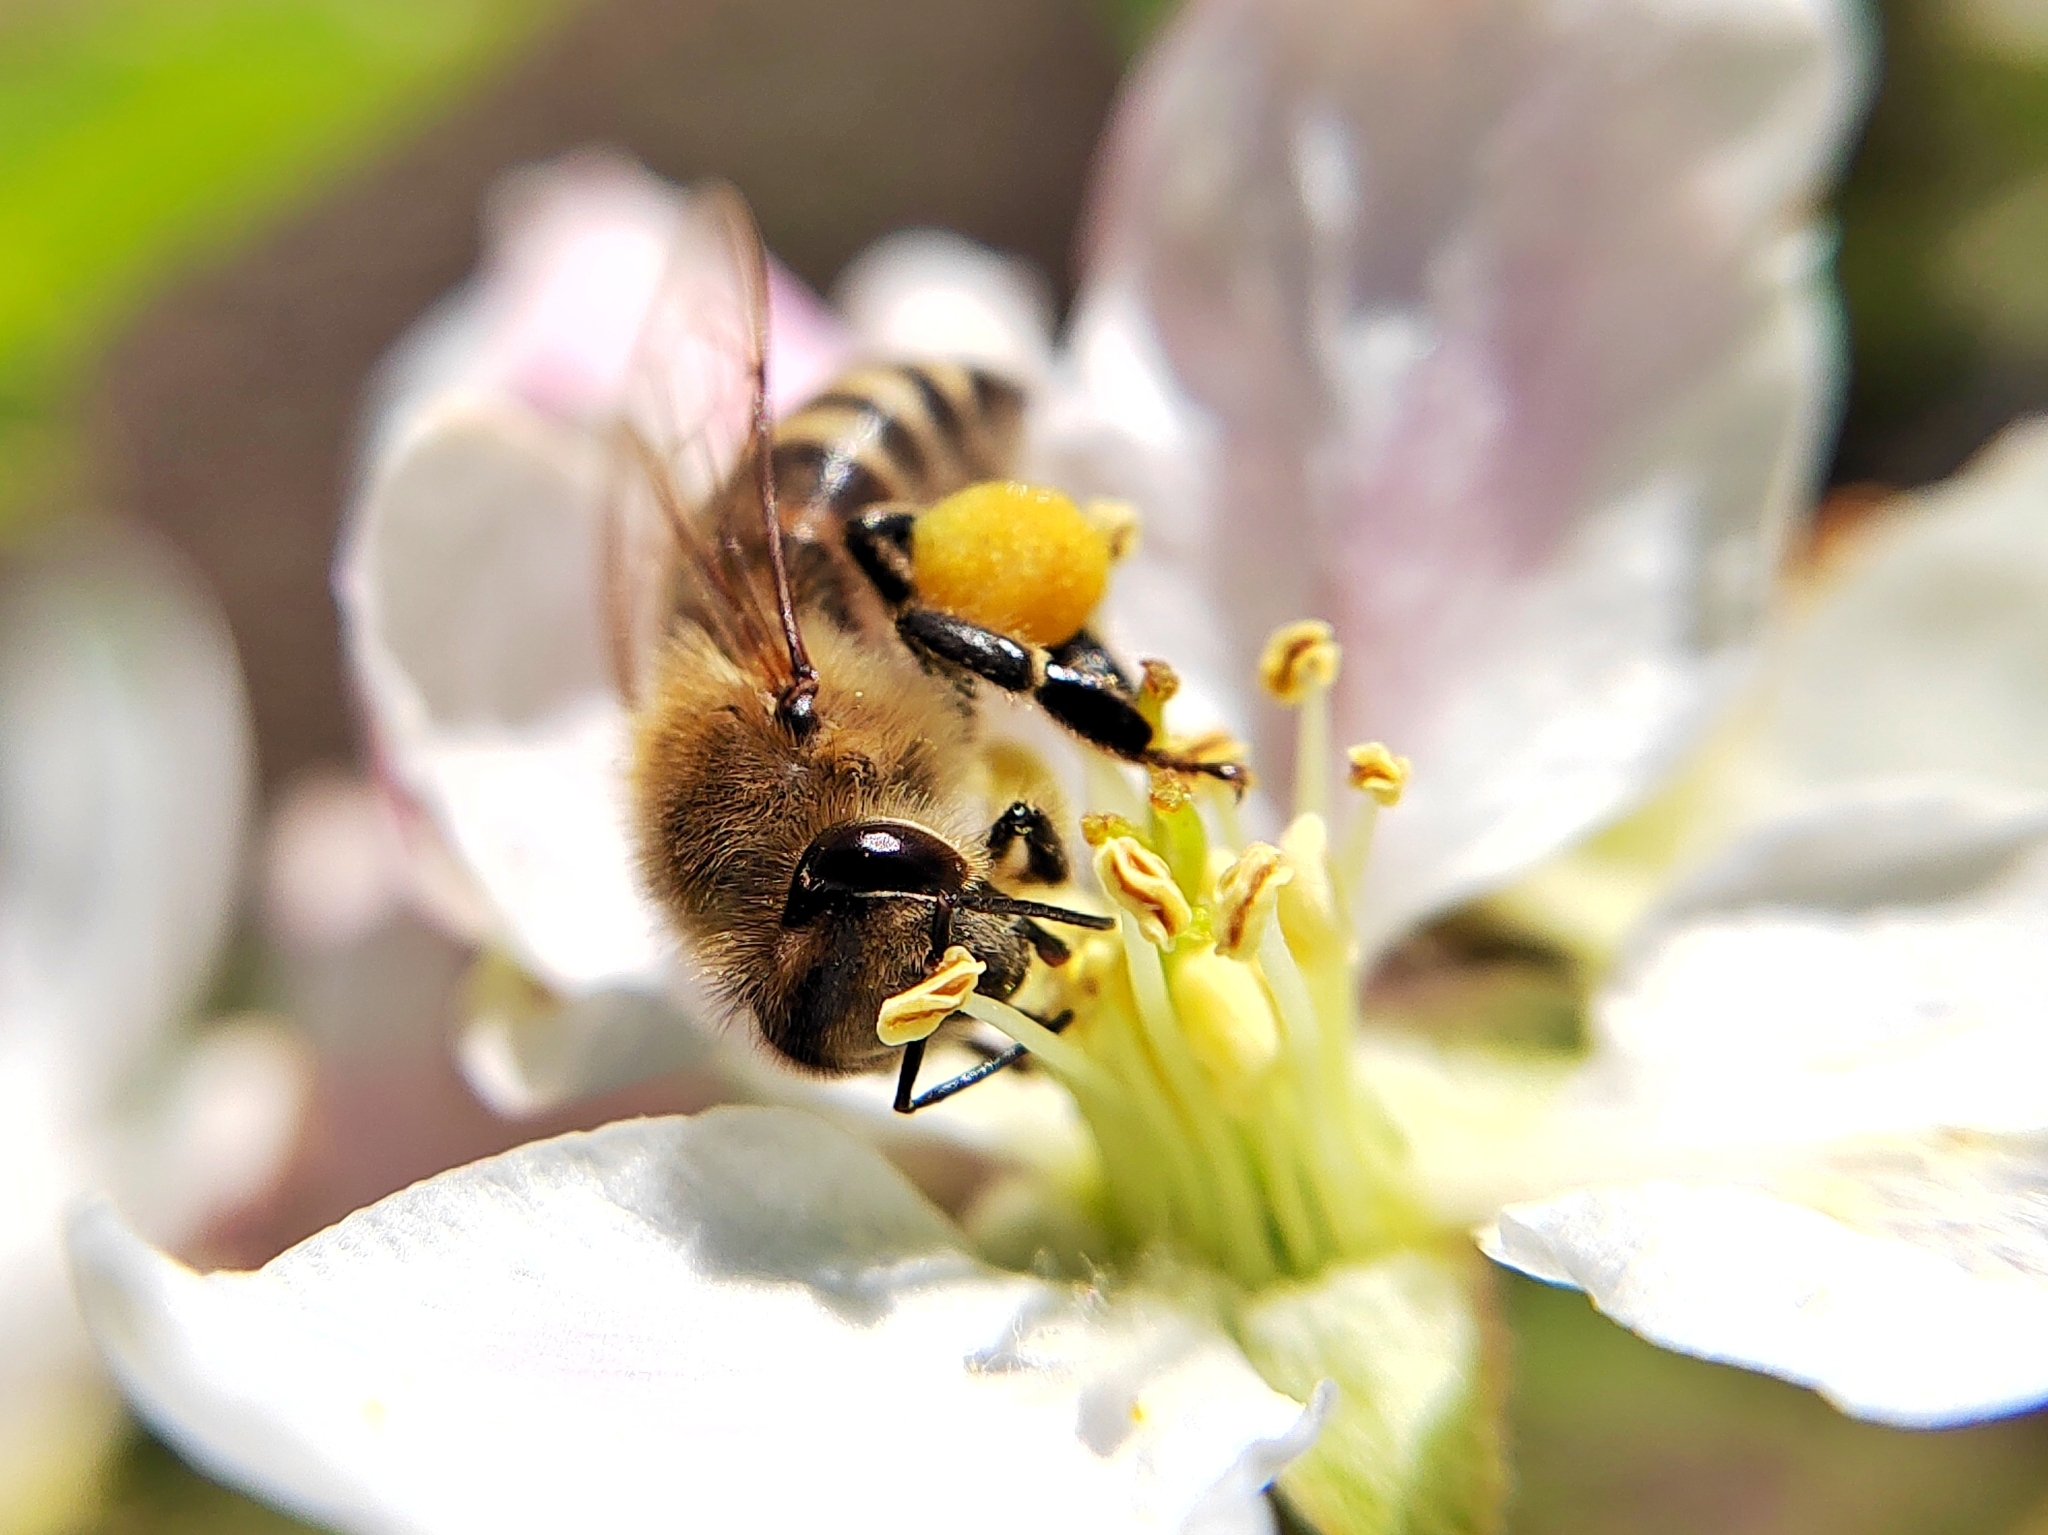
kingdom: Animalia
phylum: Arthropoda
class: Insecta
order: Hymenoptera
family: Apidae
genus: Apis
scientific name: Apis mellifera
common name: Honey bee
